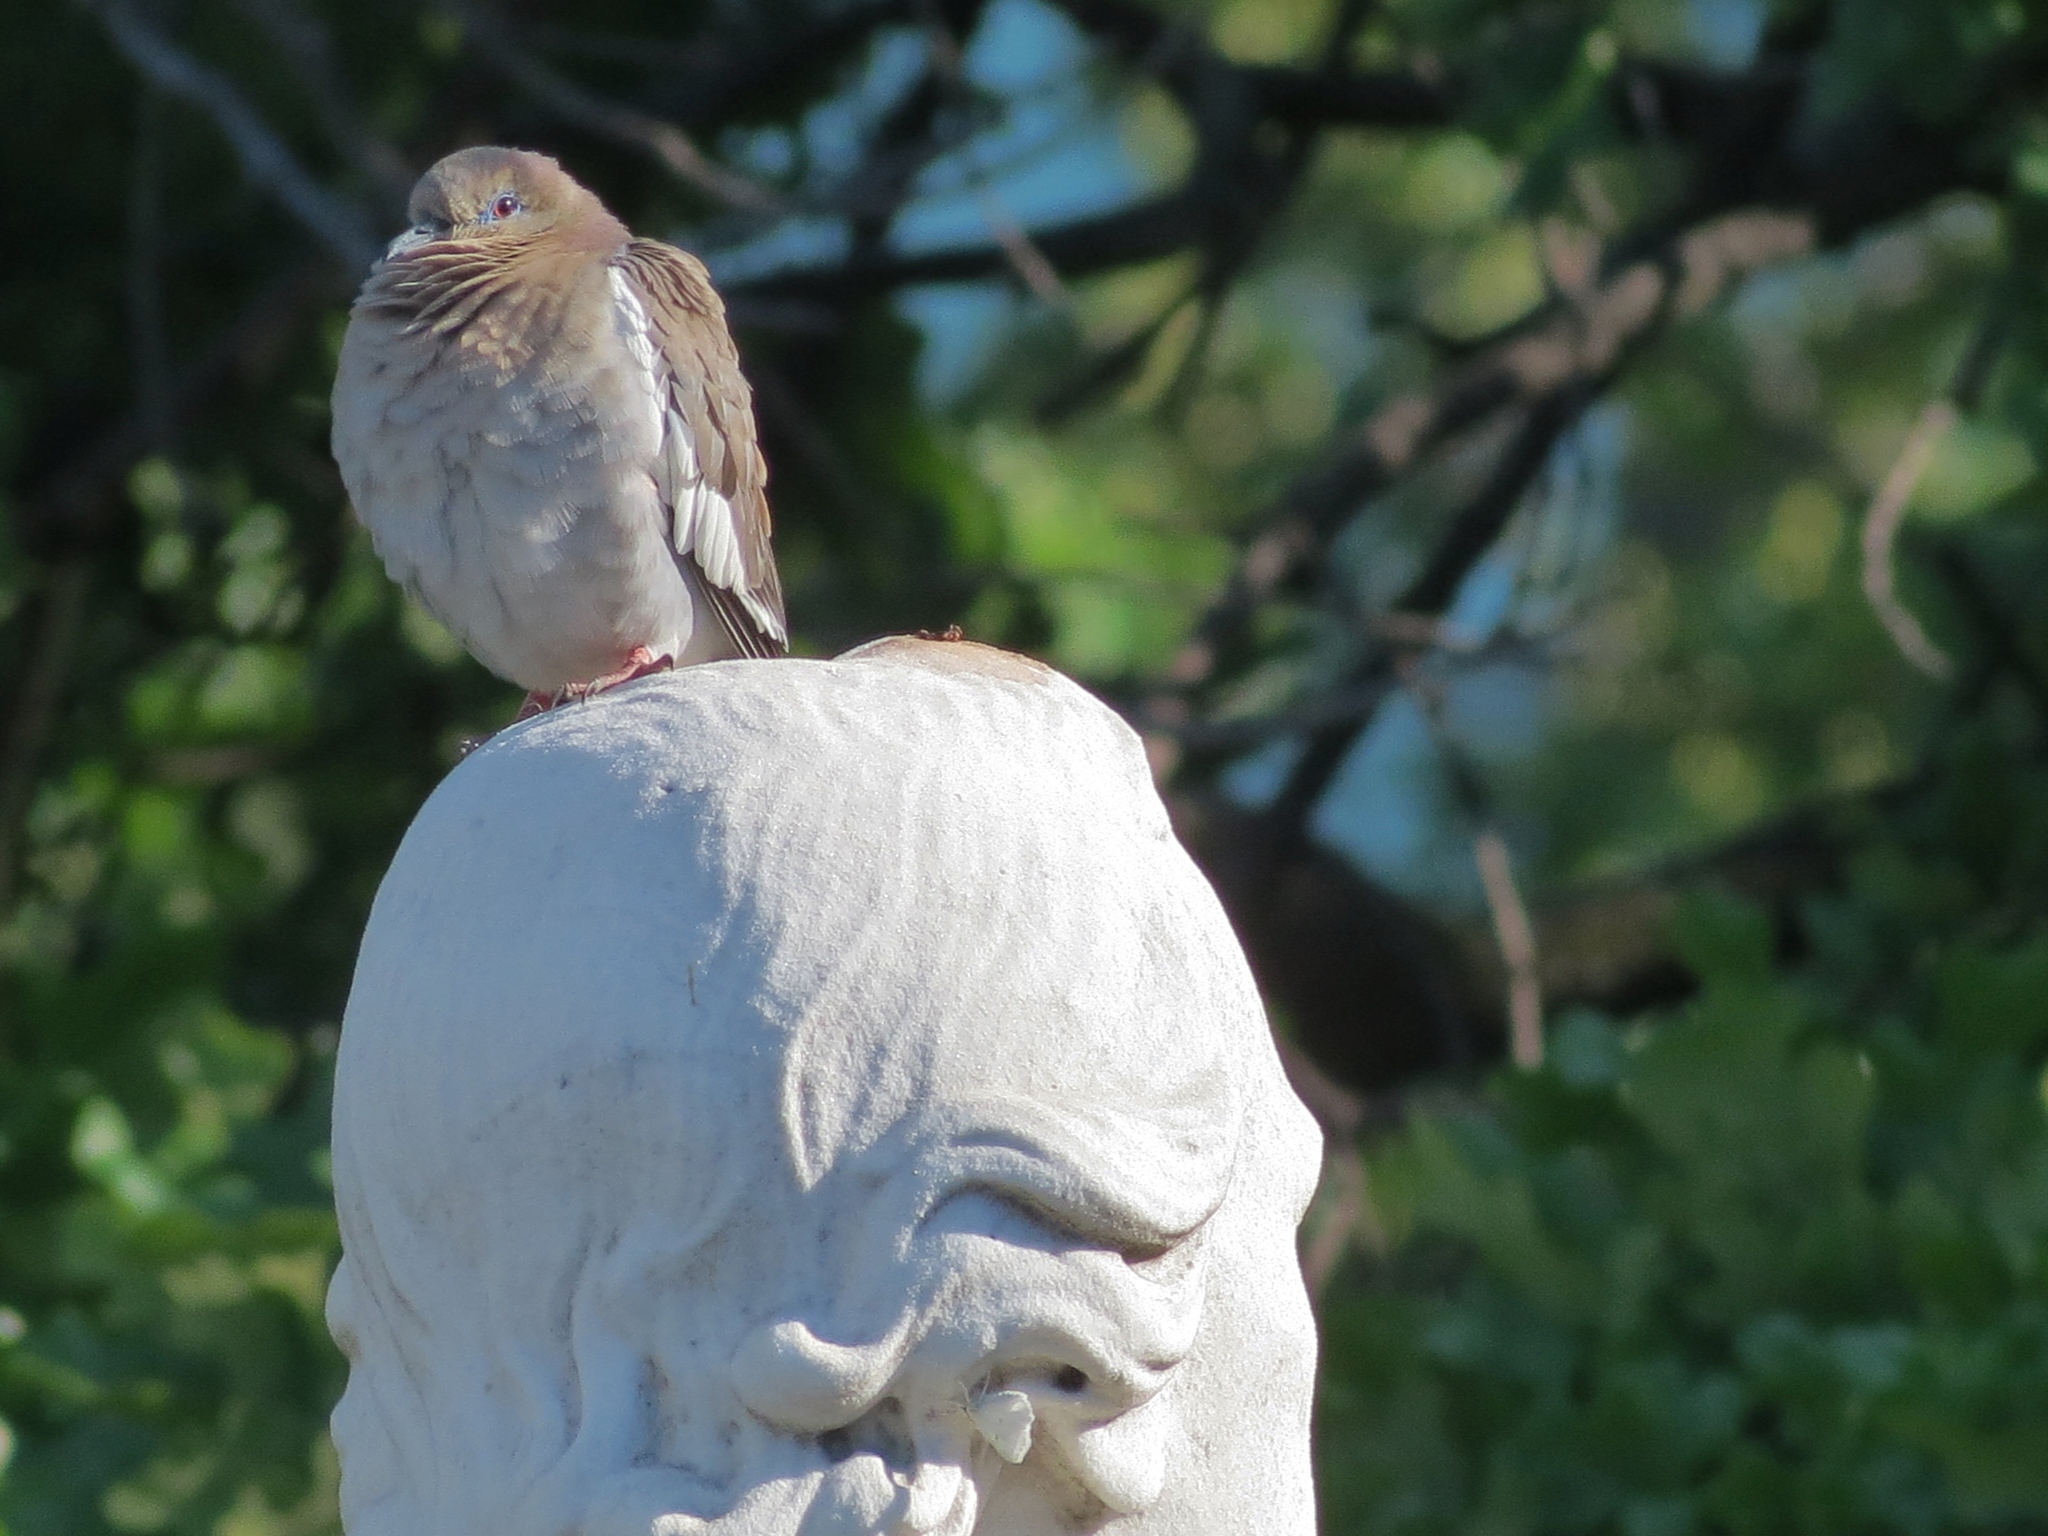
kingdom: Animalia
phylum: Chordata
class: Aves
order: Columbiformes
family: Columbidae
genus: Zenaida
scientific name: Zenaida asiatica
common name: White-winged dove
